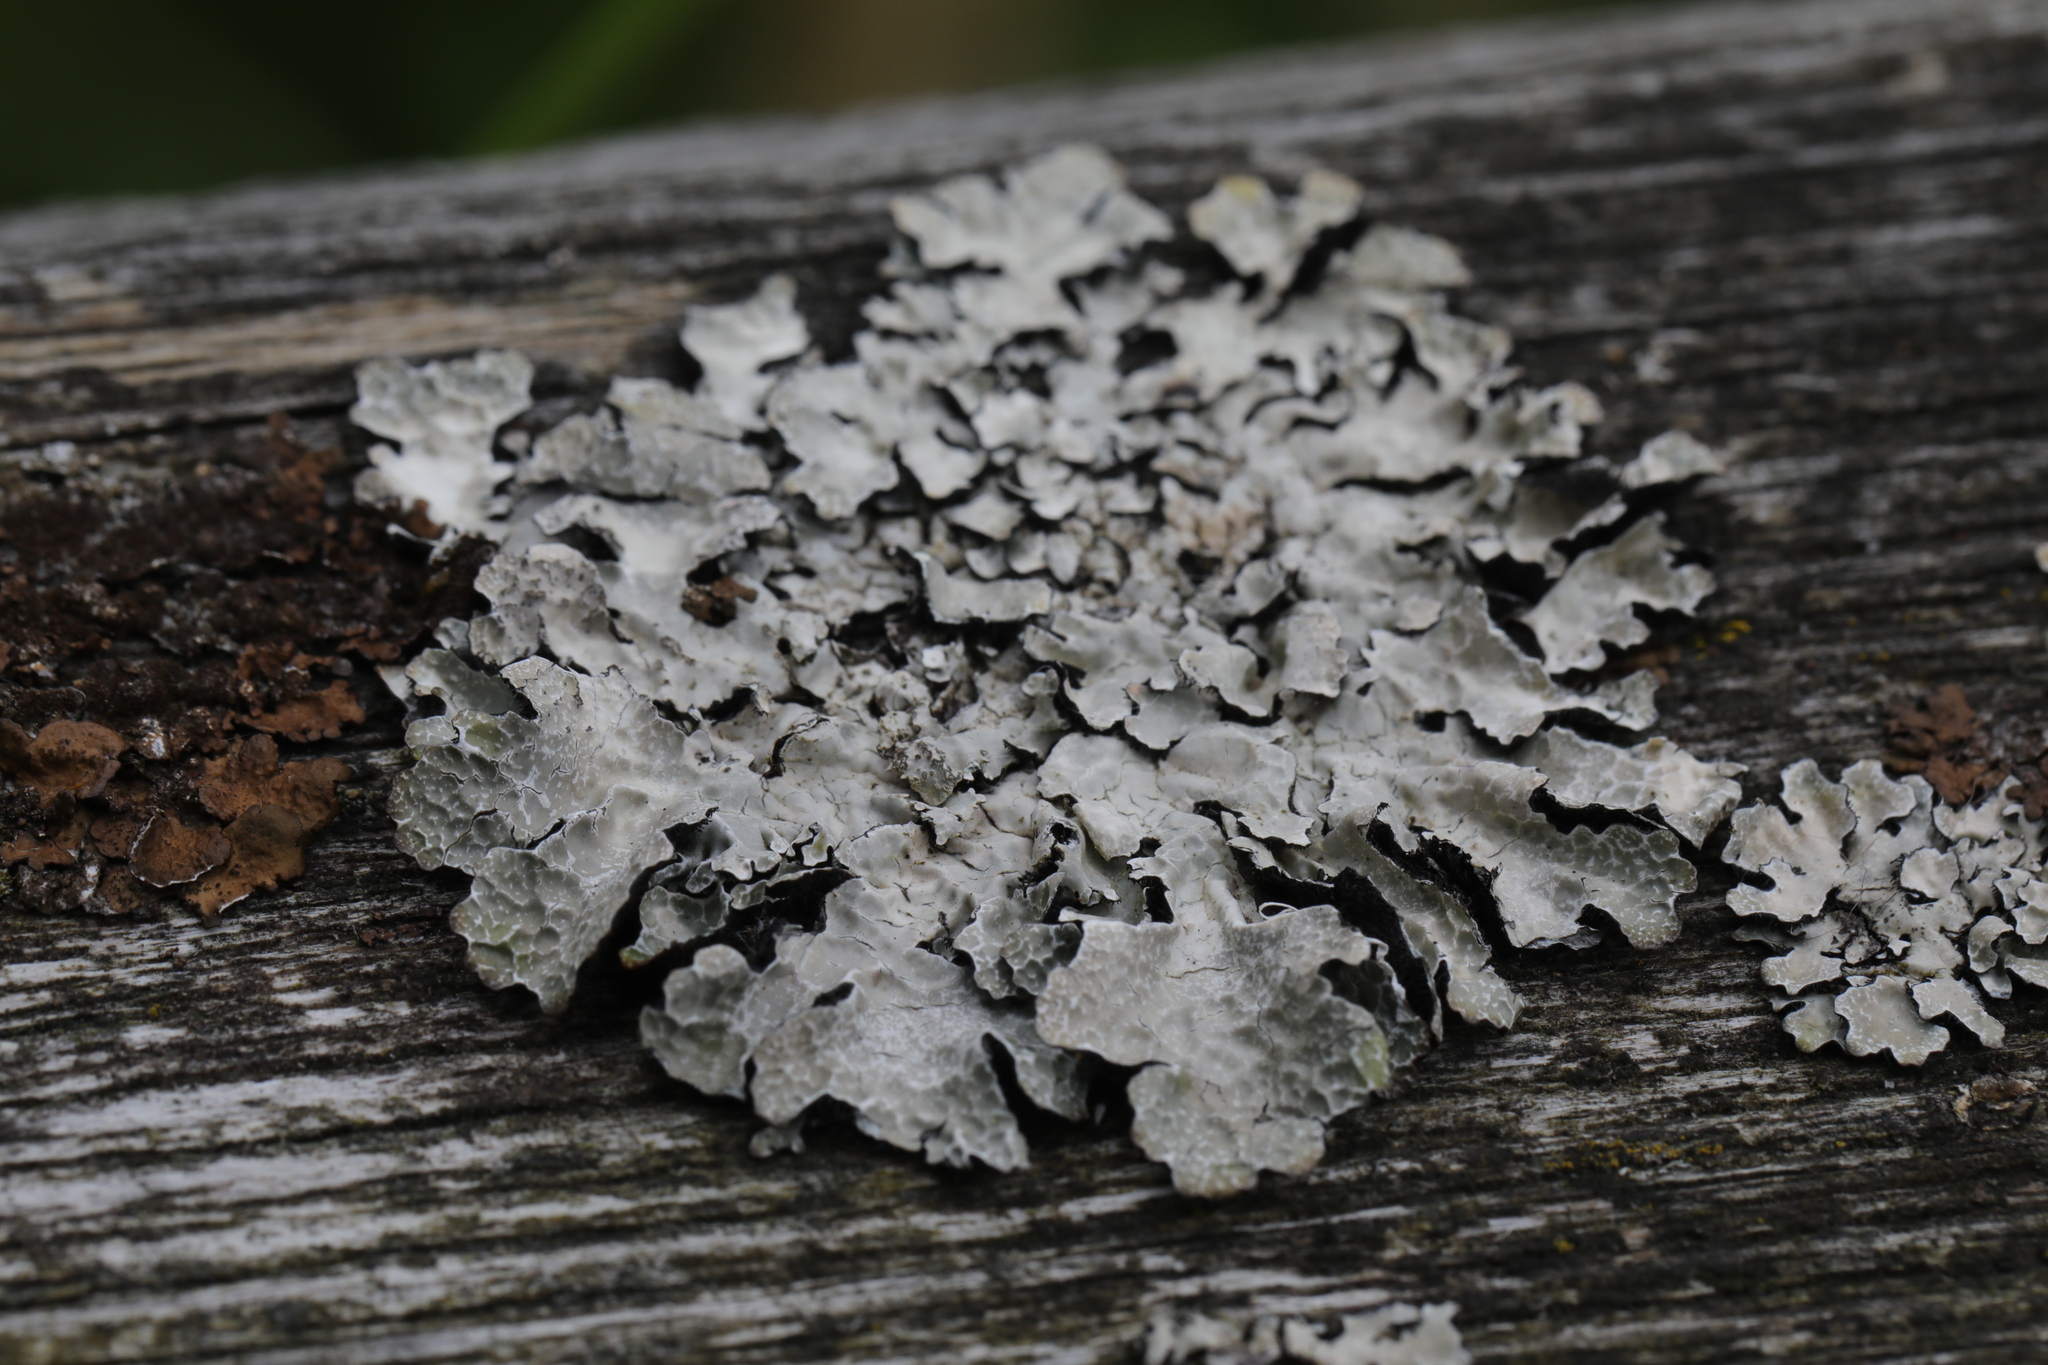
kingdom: Fungi
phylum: Ascomycota
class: Lecanoromycetes
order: Lecanorales
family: Parmeliaceae
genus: Parmelia
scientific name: Parmelia sulcata
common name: Netted shield lichen
